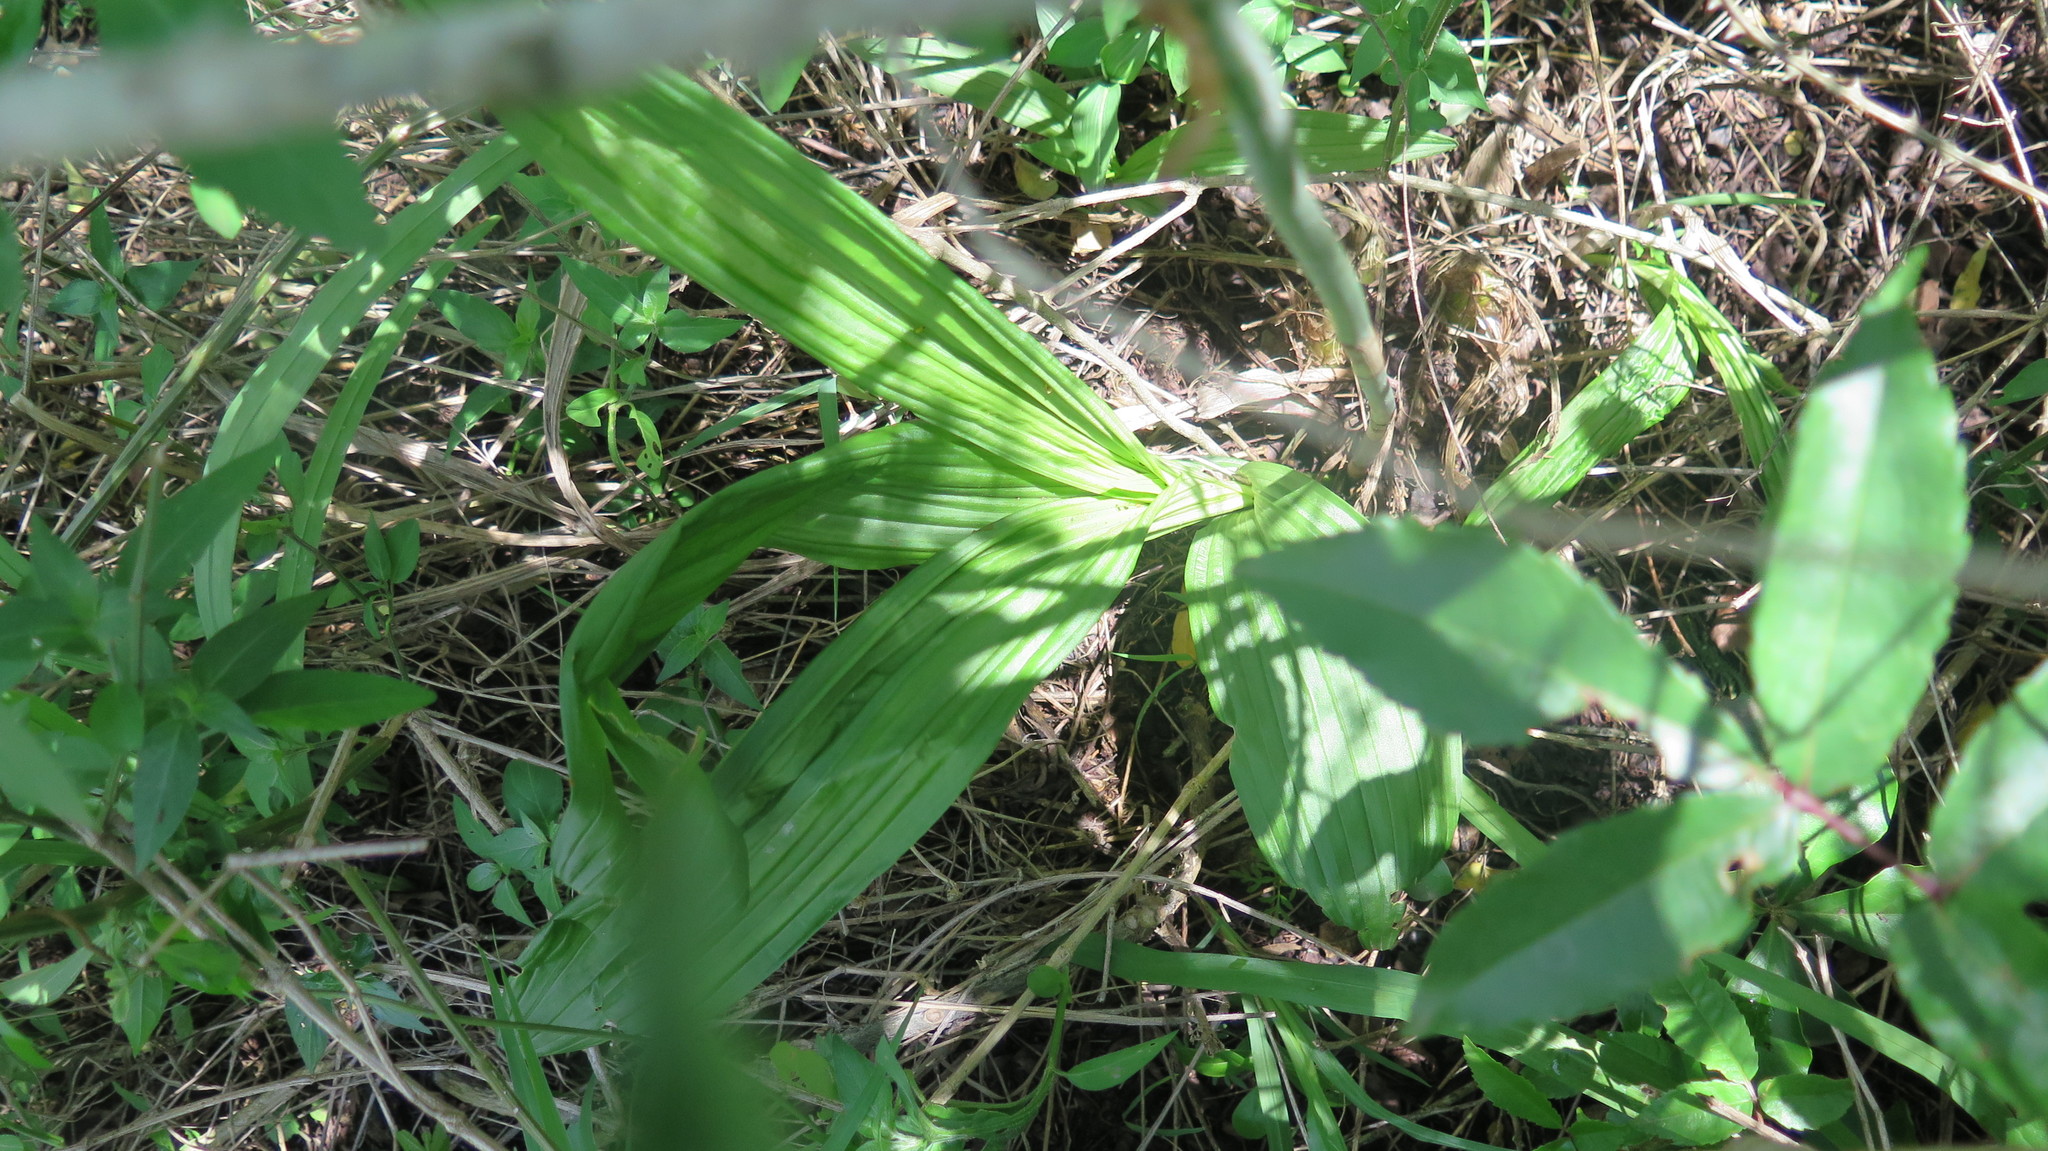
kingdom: Plantae
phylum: Tracheophyta
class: Liliopsida
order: Asparagales
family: Orchidaceae
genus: Eulophia
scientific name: Eulophia streptopetala
